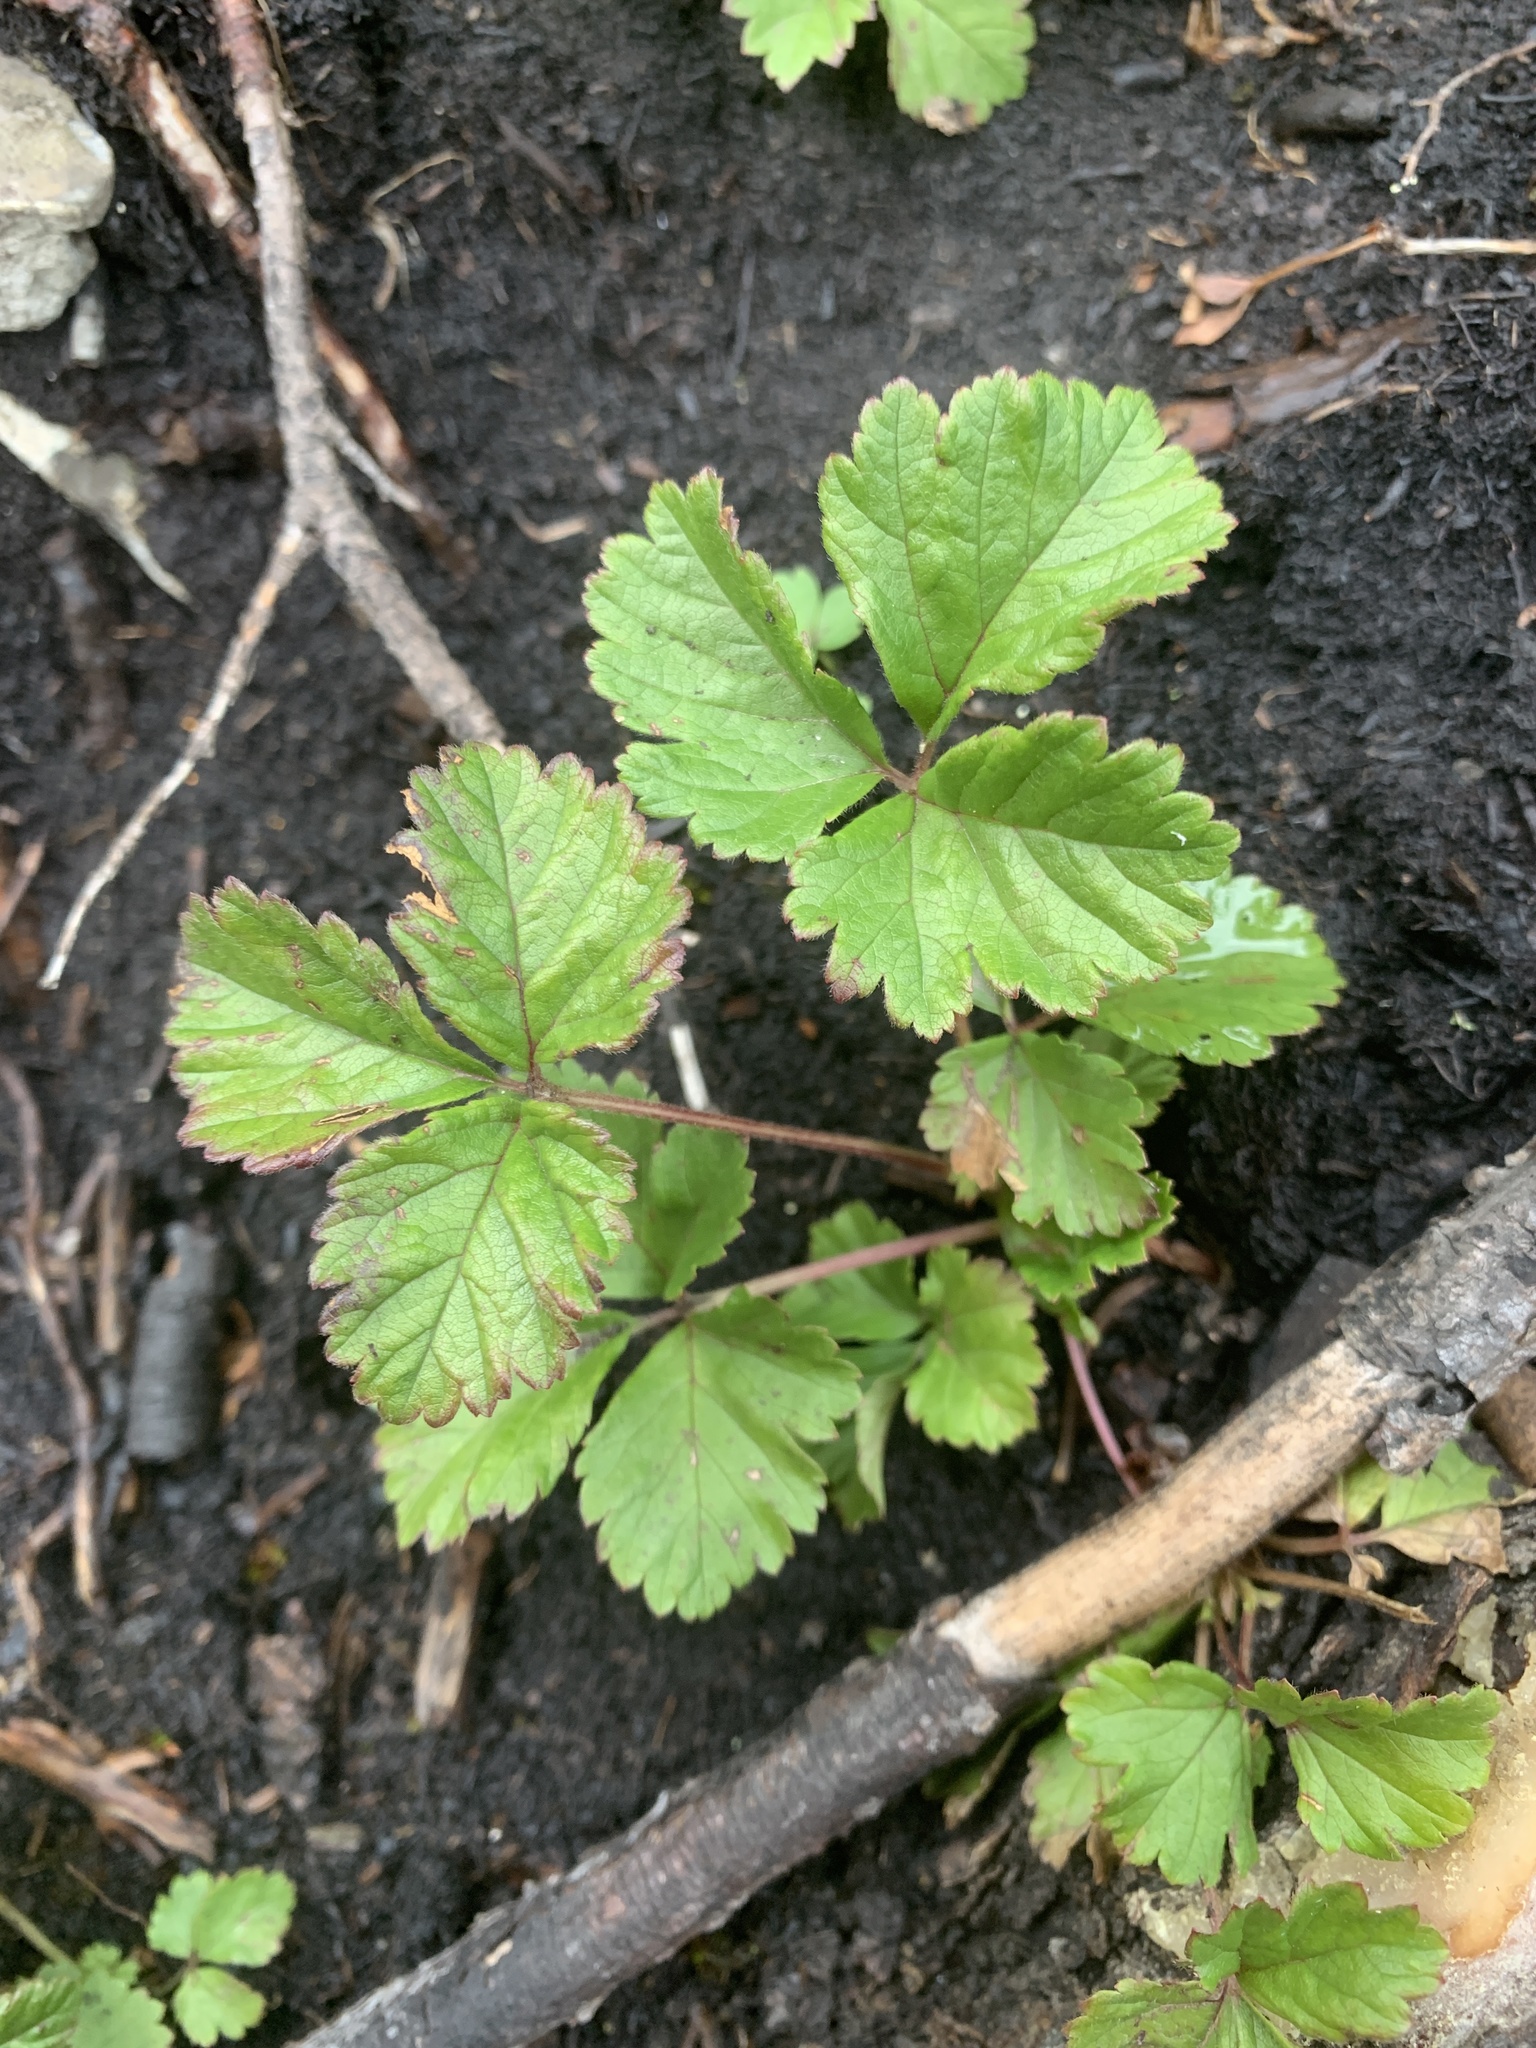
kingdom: Plantae
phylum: Tracheophyta
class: Magnoliopsida
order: Rosales
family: Rosaceae
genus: Rubus
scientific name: Rubus arcticus
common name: Arctic bramble
